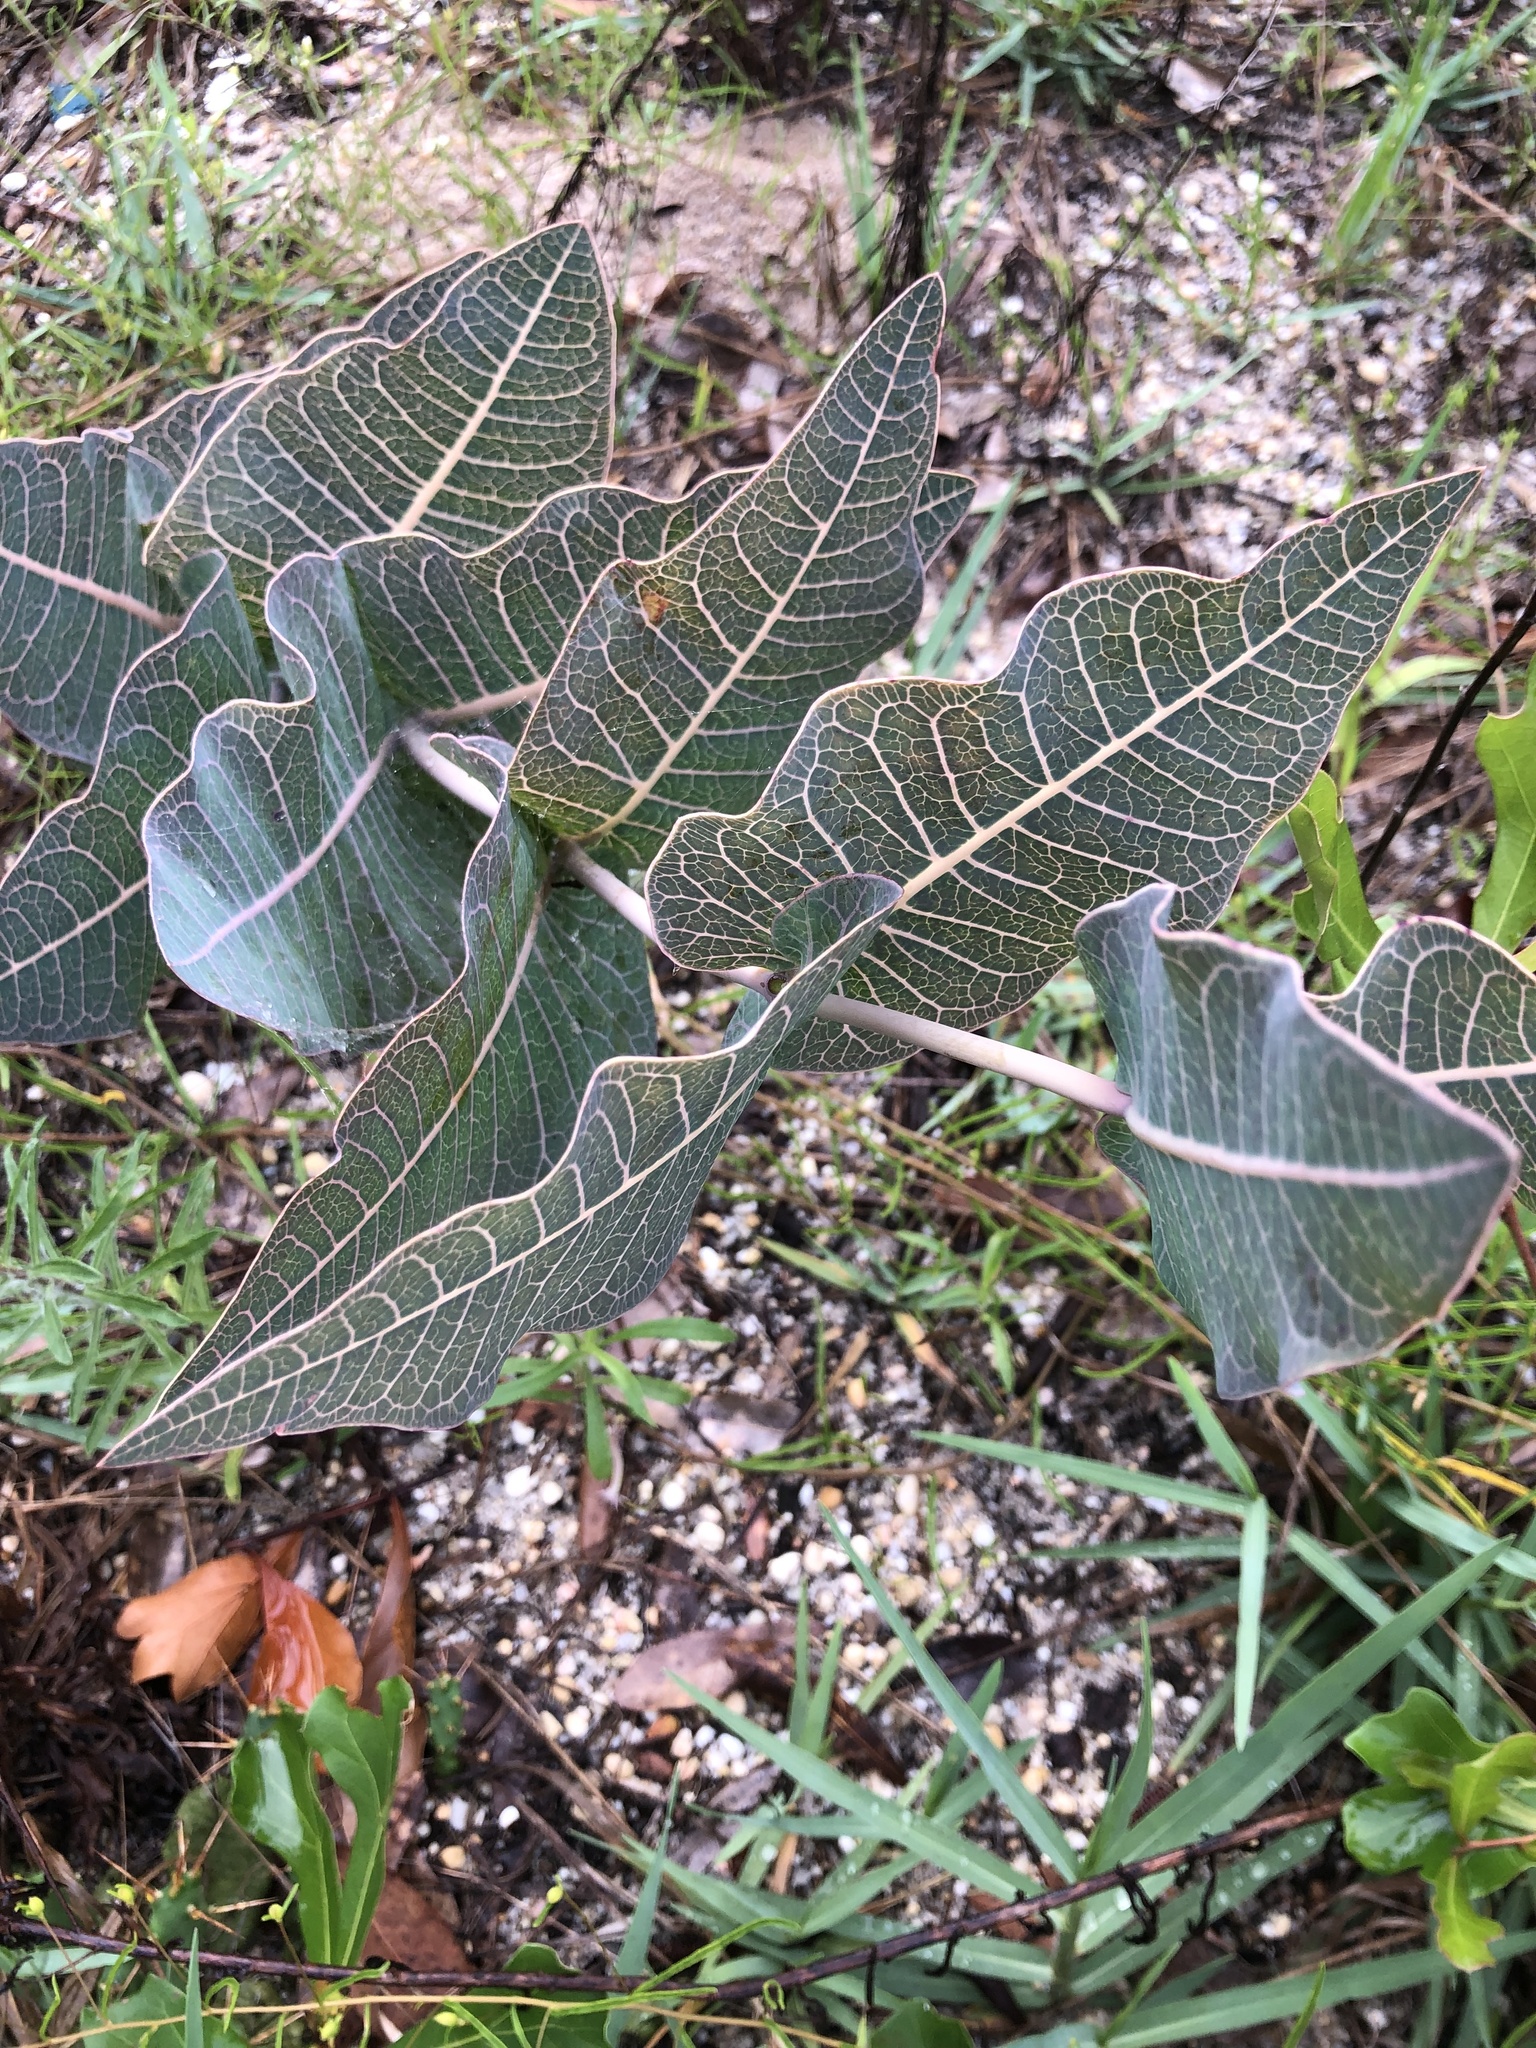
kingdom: Plantae
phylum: Tracheophyta
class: Magnoliopsida
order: Gentianales
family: Apocynaceae
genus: Asclepias
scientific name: Asclepias humistrata
